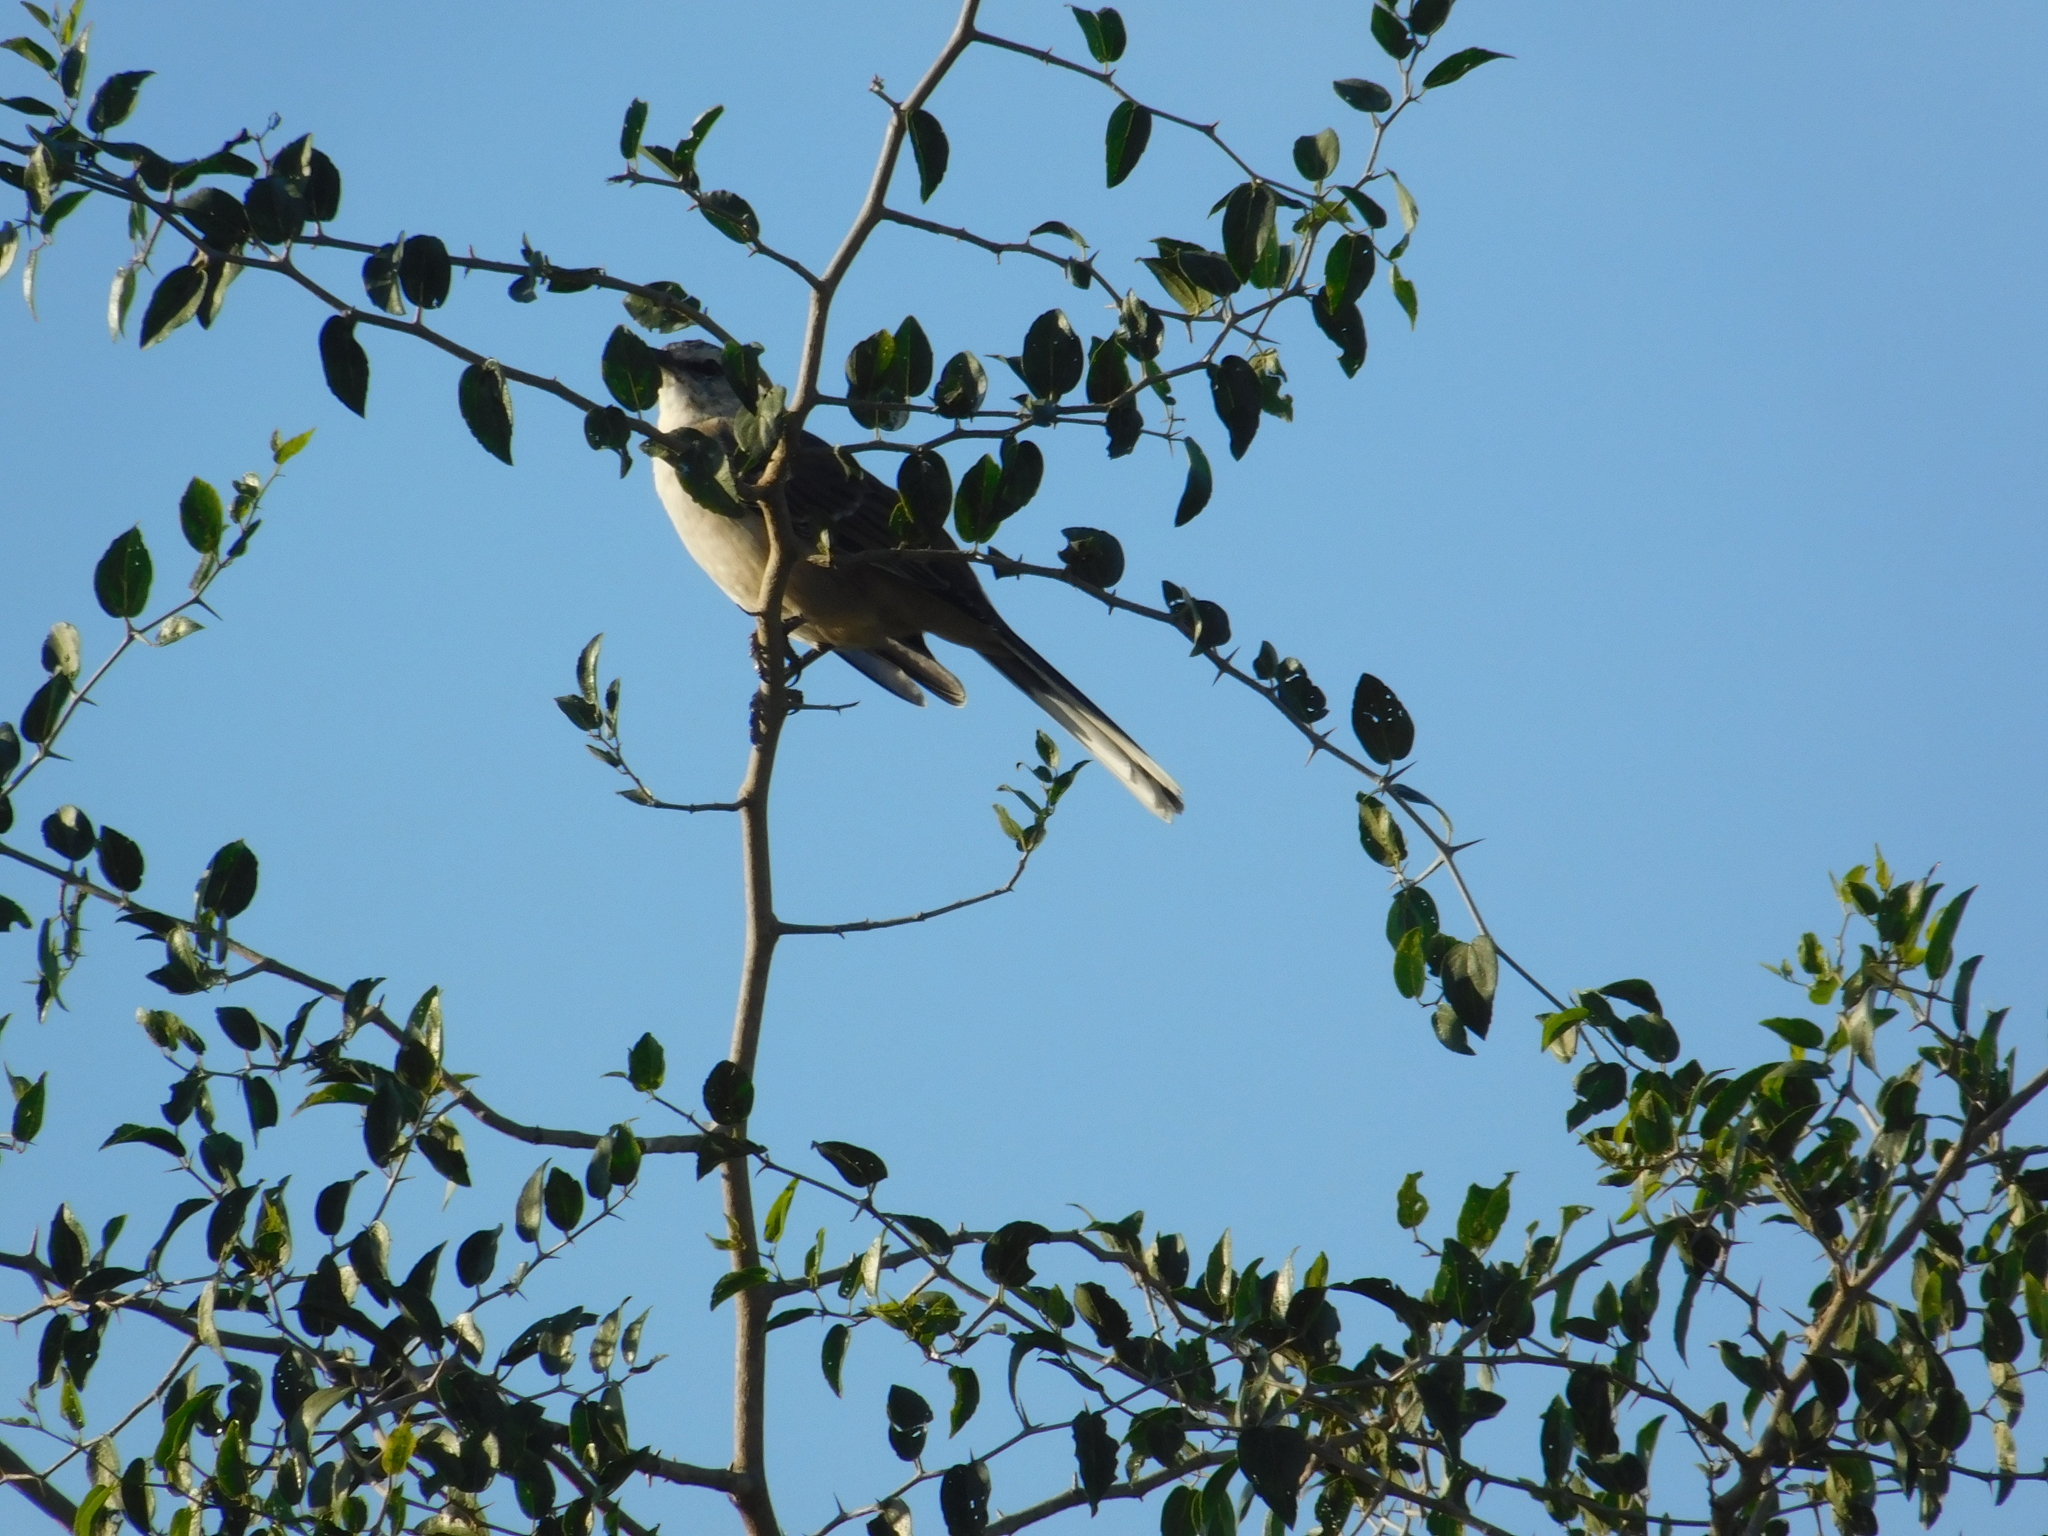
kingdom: Animalia
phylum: Chordata
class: Aves
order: Passeriformes
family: Mimidae
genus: Mimus
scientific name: Mimus saturninus
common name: Chalk-browed mockingbird
